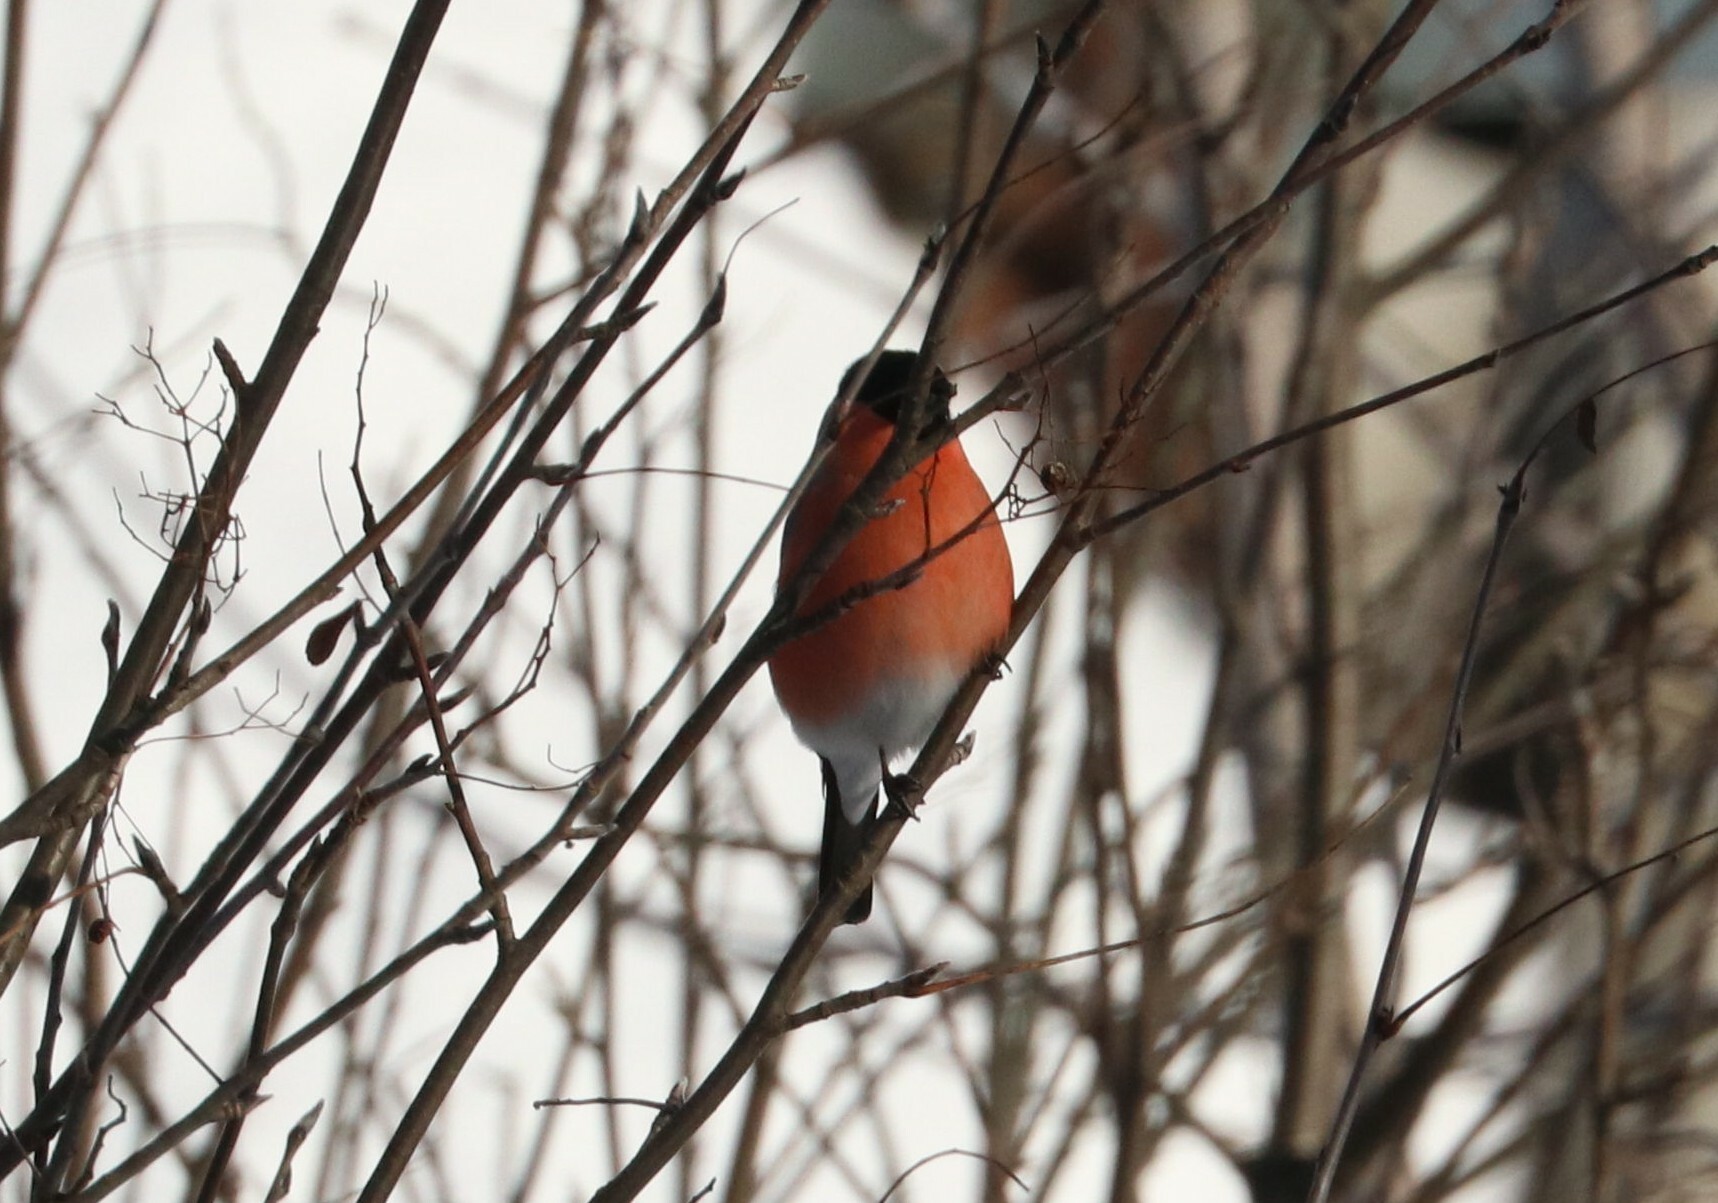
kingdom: Animalia
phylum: Chordata
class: Aves
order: Passeriformes
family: Fringillidae
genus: Pyrrhula
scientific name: Pyrrhula pyrrhula
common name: Eurasian bullfinch
